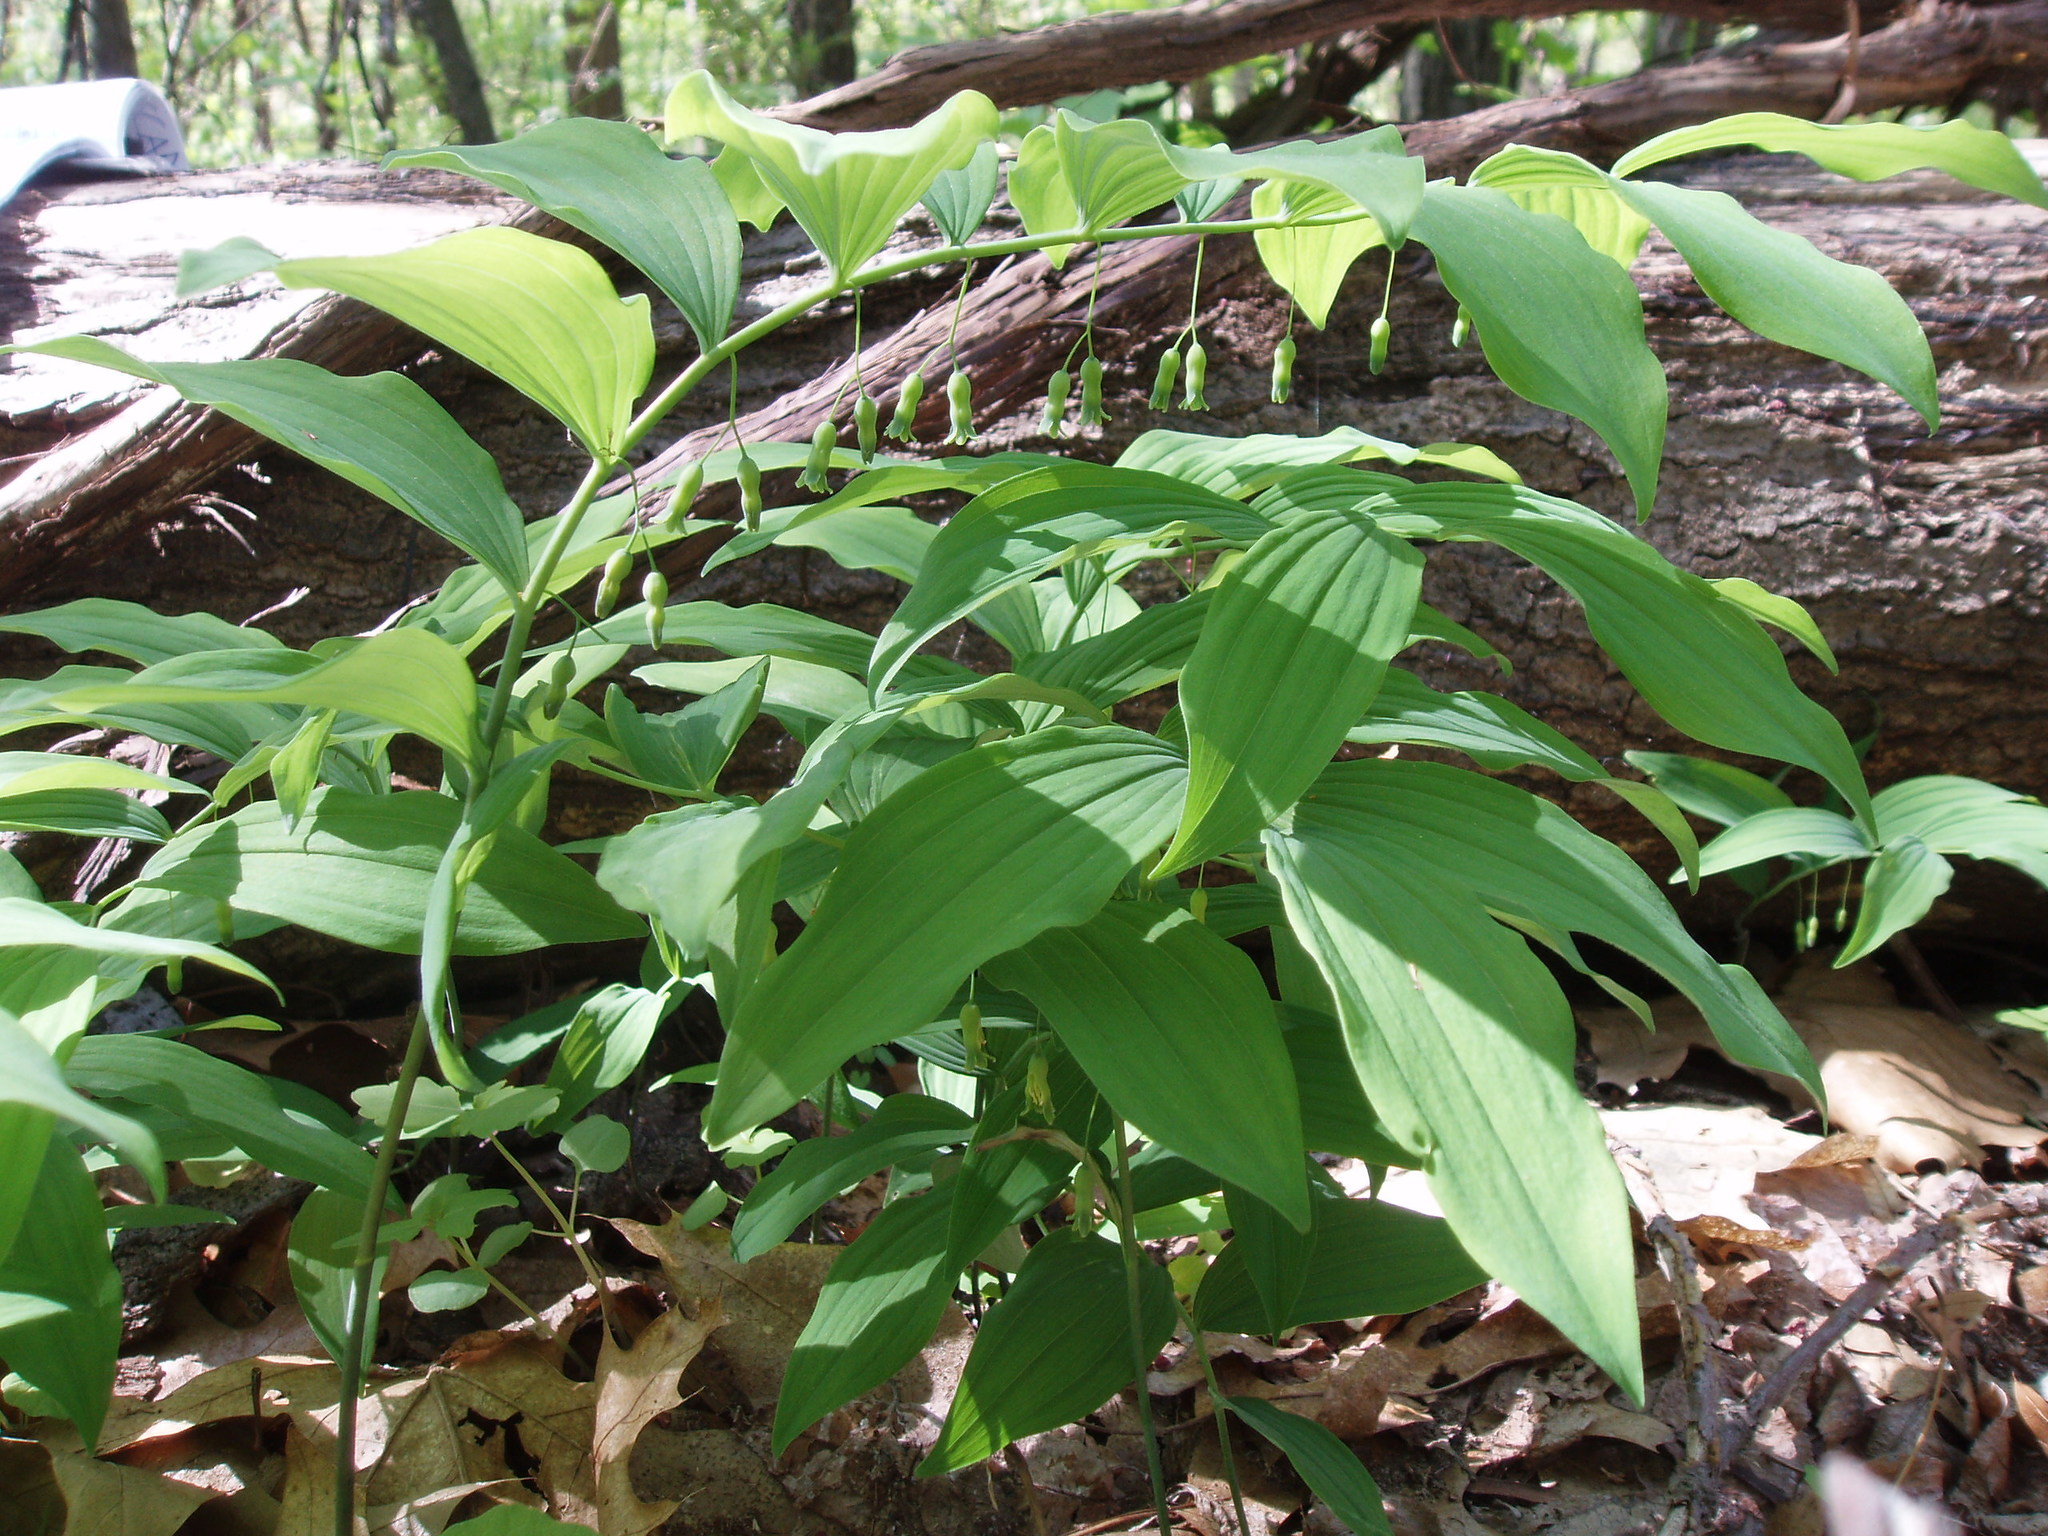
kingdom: Plantae
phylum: Tracheophyta
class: Liliopsida
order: Asparagales
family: Asparagaceae
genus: Polygonatum
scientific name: Polygonatum pubescens
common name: Downy solomon's seal
